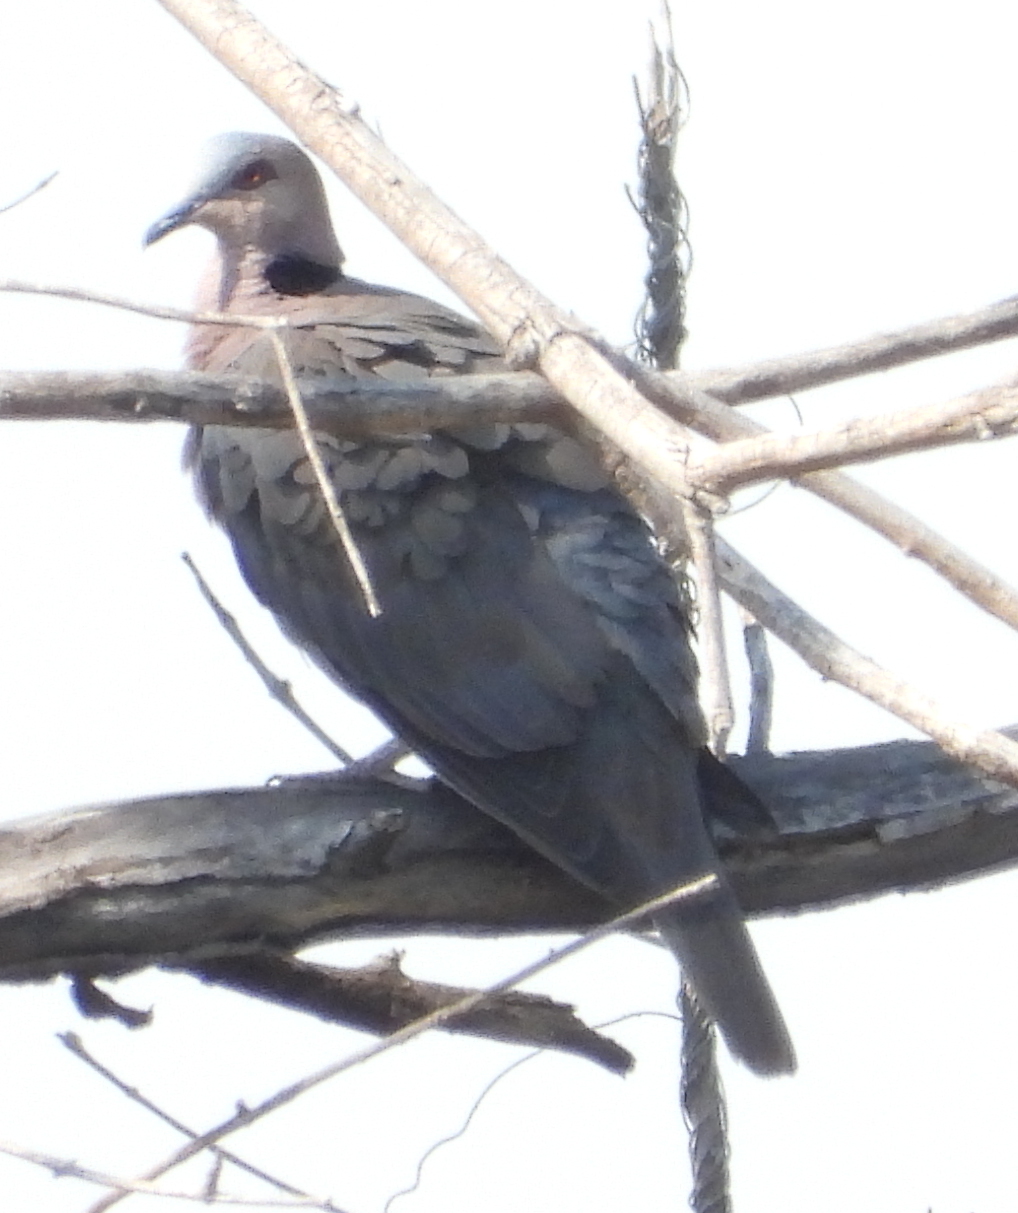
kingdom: Animalia
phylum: Chordata
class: Aves
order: Columbiformes
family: Columbidae
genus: Streptopelia
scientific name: Streptopelia semitorquata
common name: Red-eyed dove
